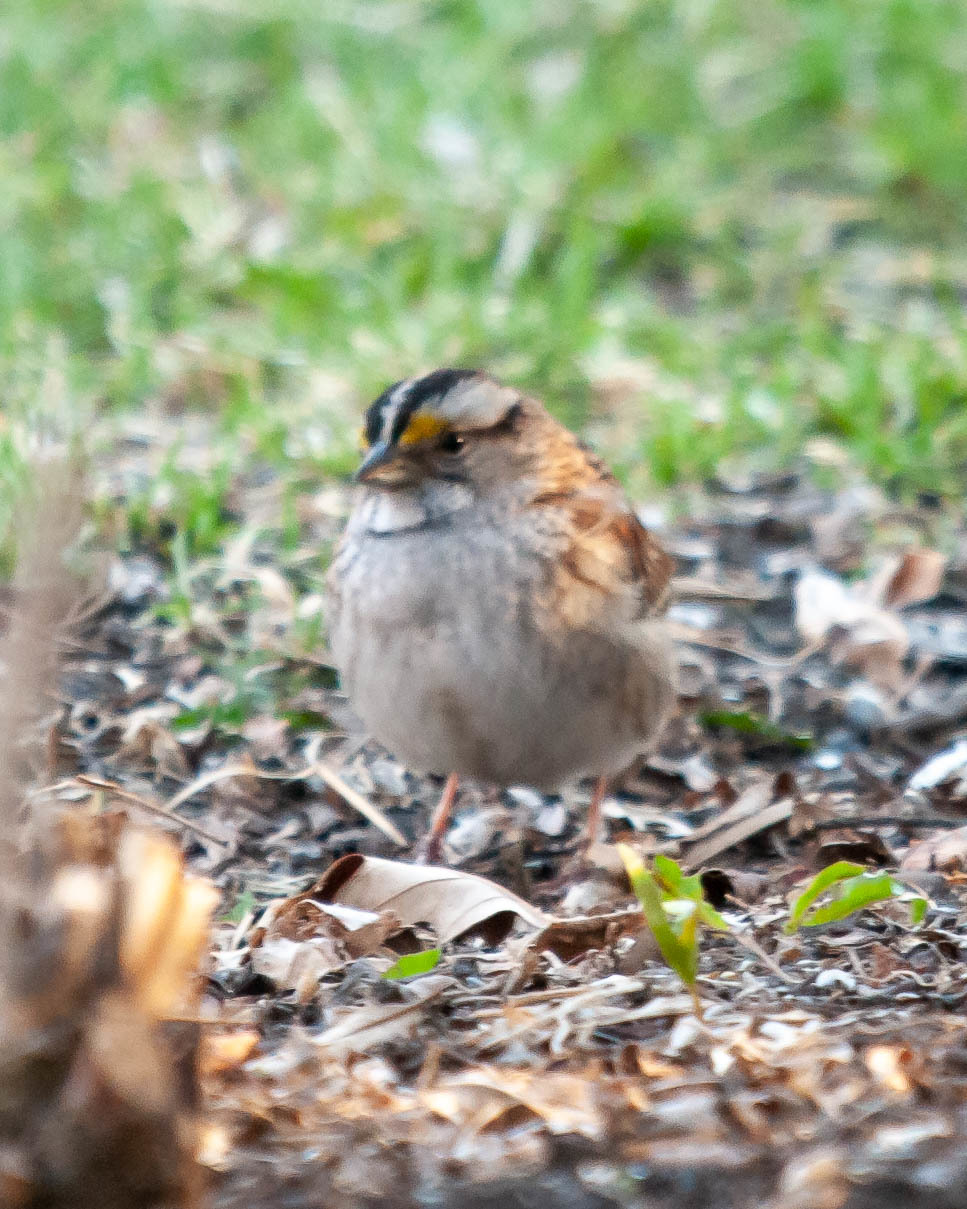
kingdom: Animalia
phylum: Chordata
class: Aves
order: Passeriformes
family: Passerellidae
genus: Zonotrichia
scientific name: Zonotrichia albicollis
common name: White-throated sparrow
